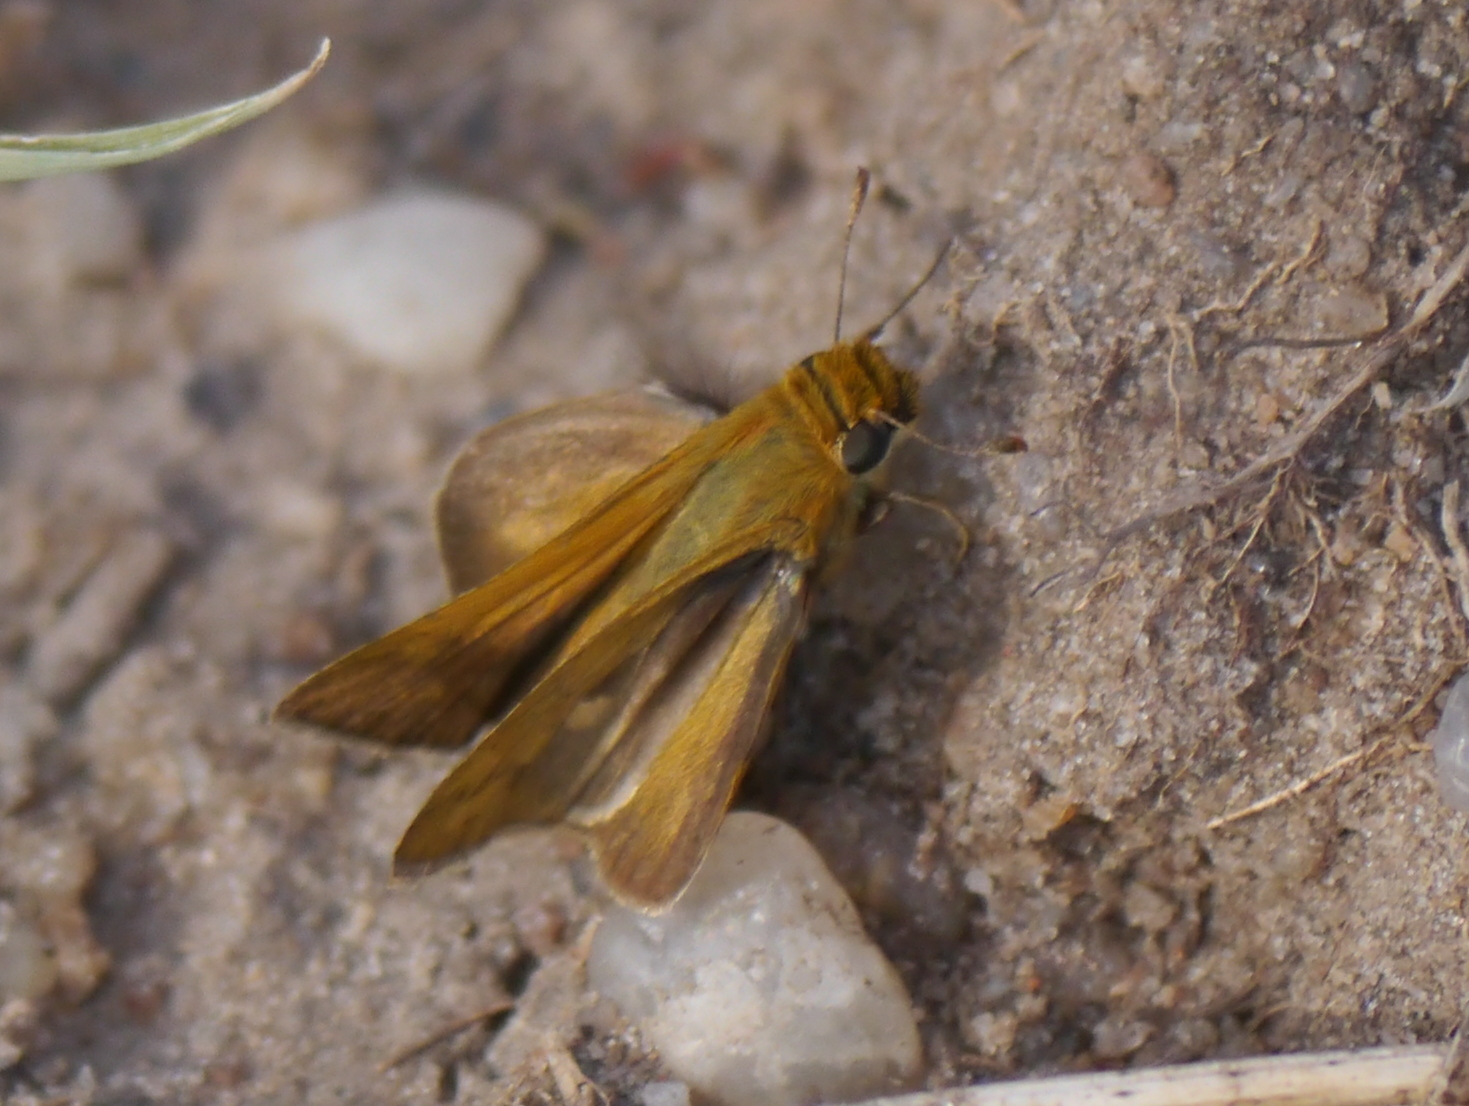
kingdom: Animalia
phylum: Arthropoda
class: Insecta
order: Lepidoptera
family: Hesperiidae
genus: Gegenes
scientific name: Gegenes hottentota
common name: Marsh hottentot skipper
